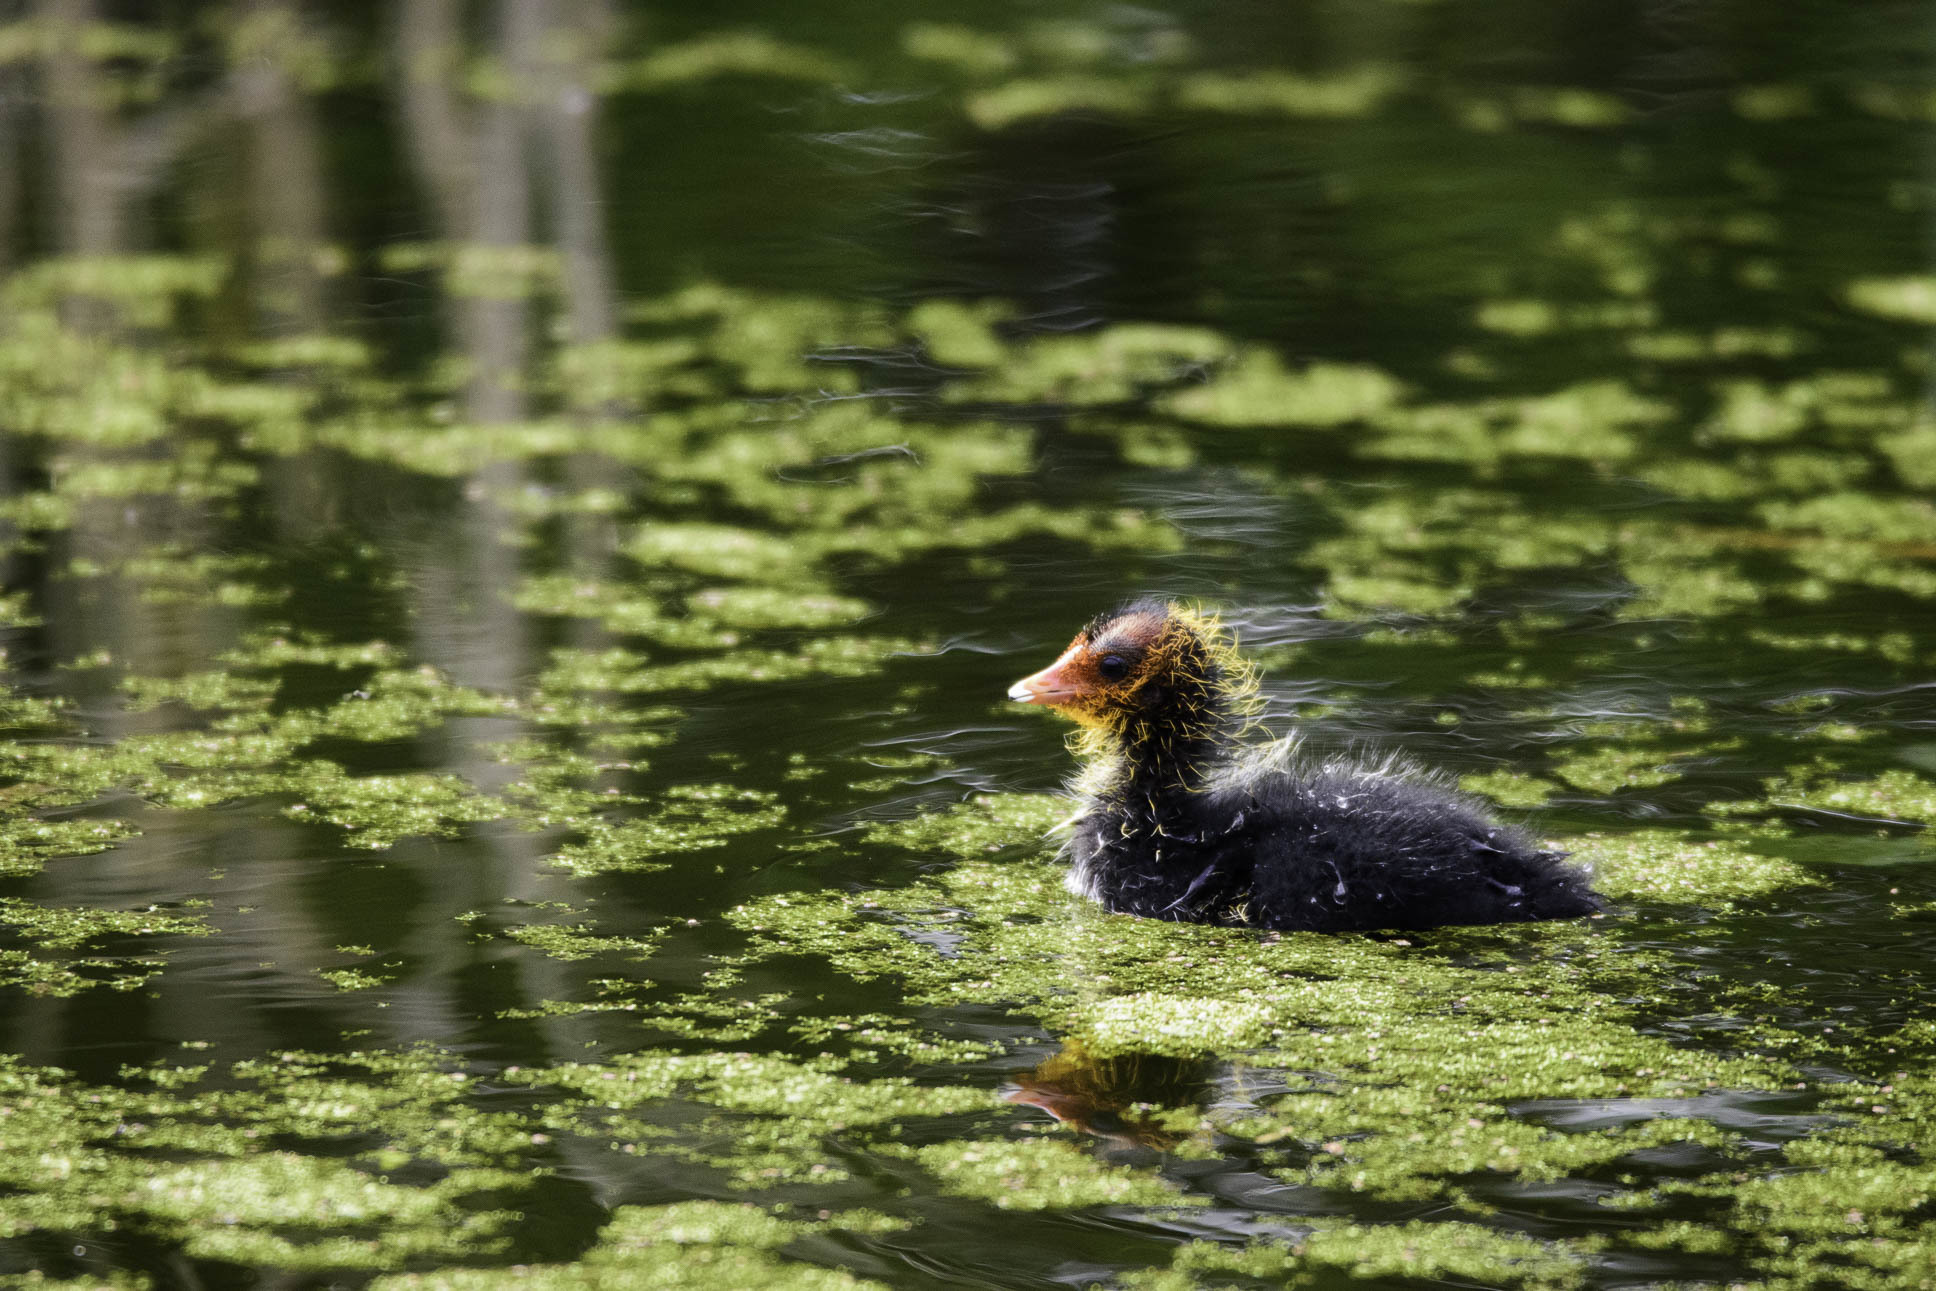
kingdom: Animalia
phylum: Chordata
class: Aves
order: Gruiformes
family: Rallidae
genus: Fulica
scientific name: Fulica atra
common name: Eurasian coot
